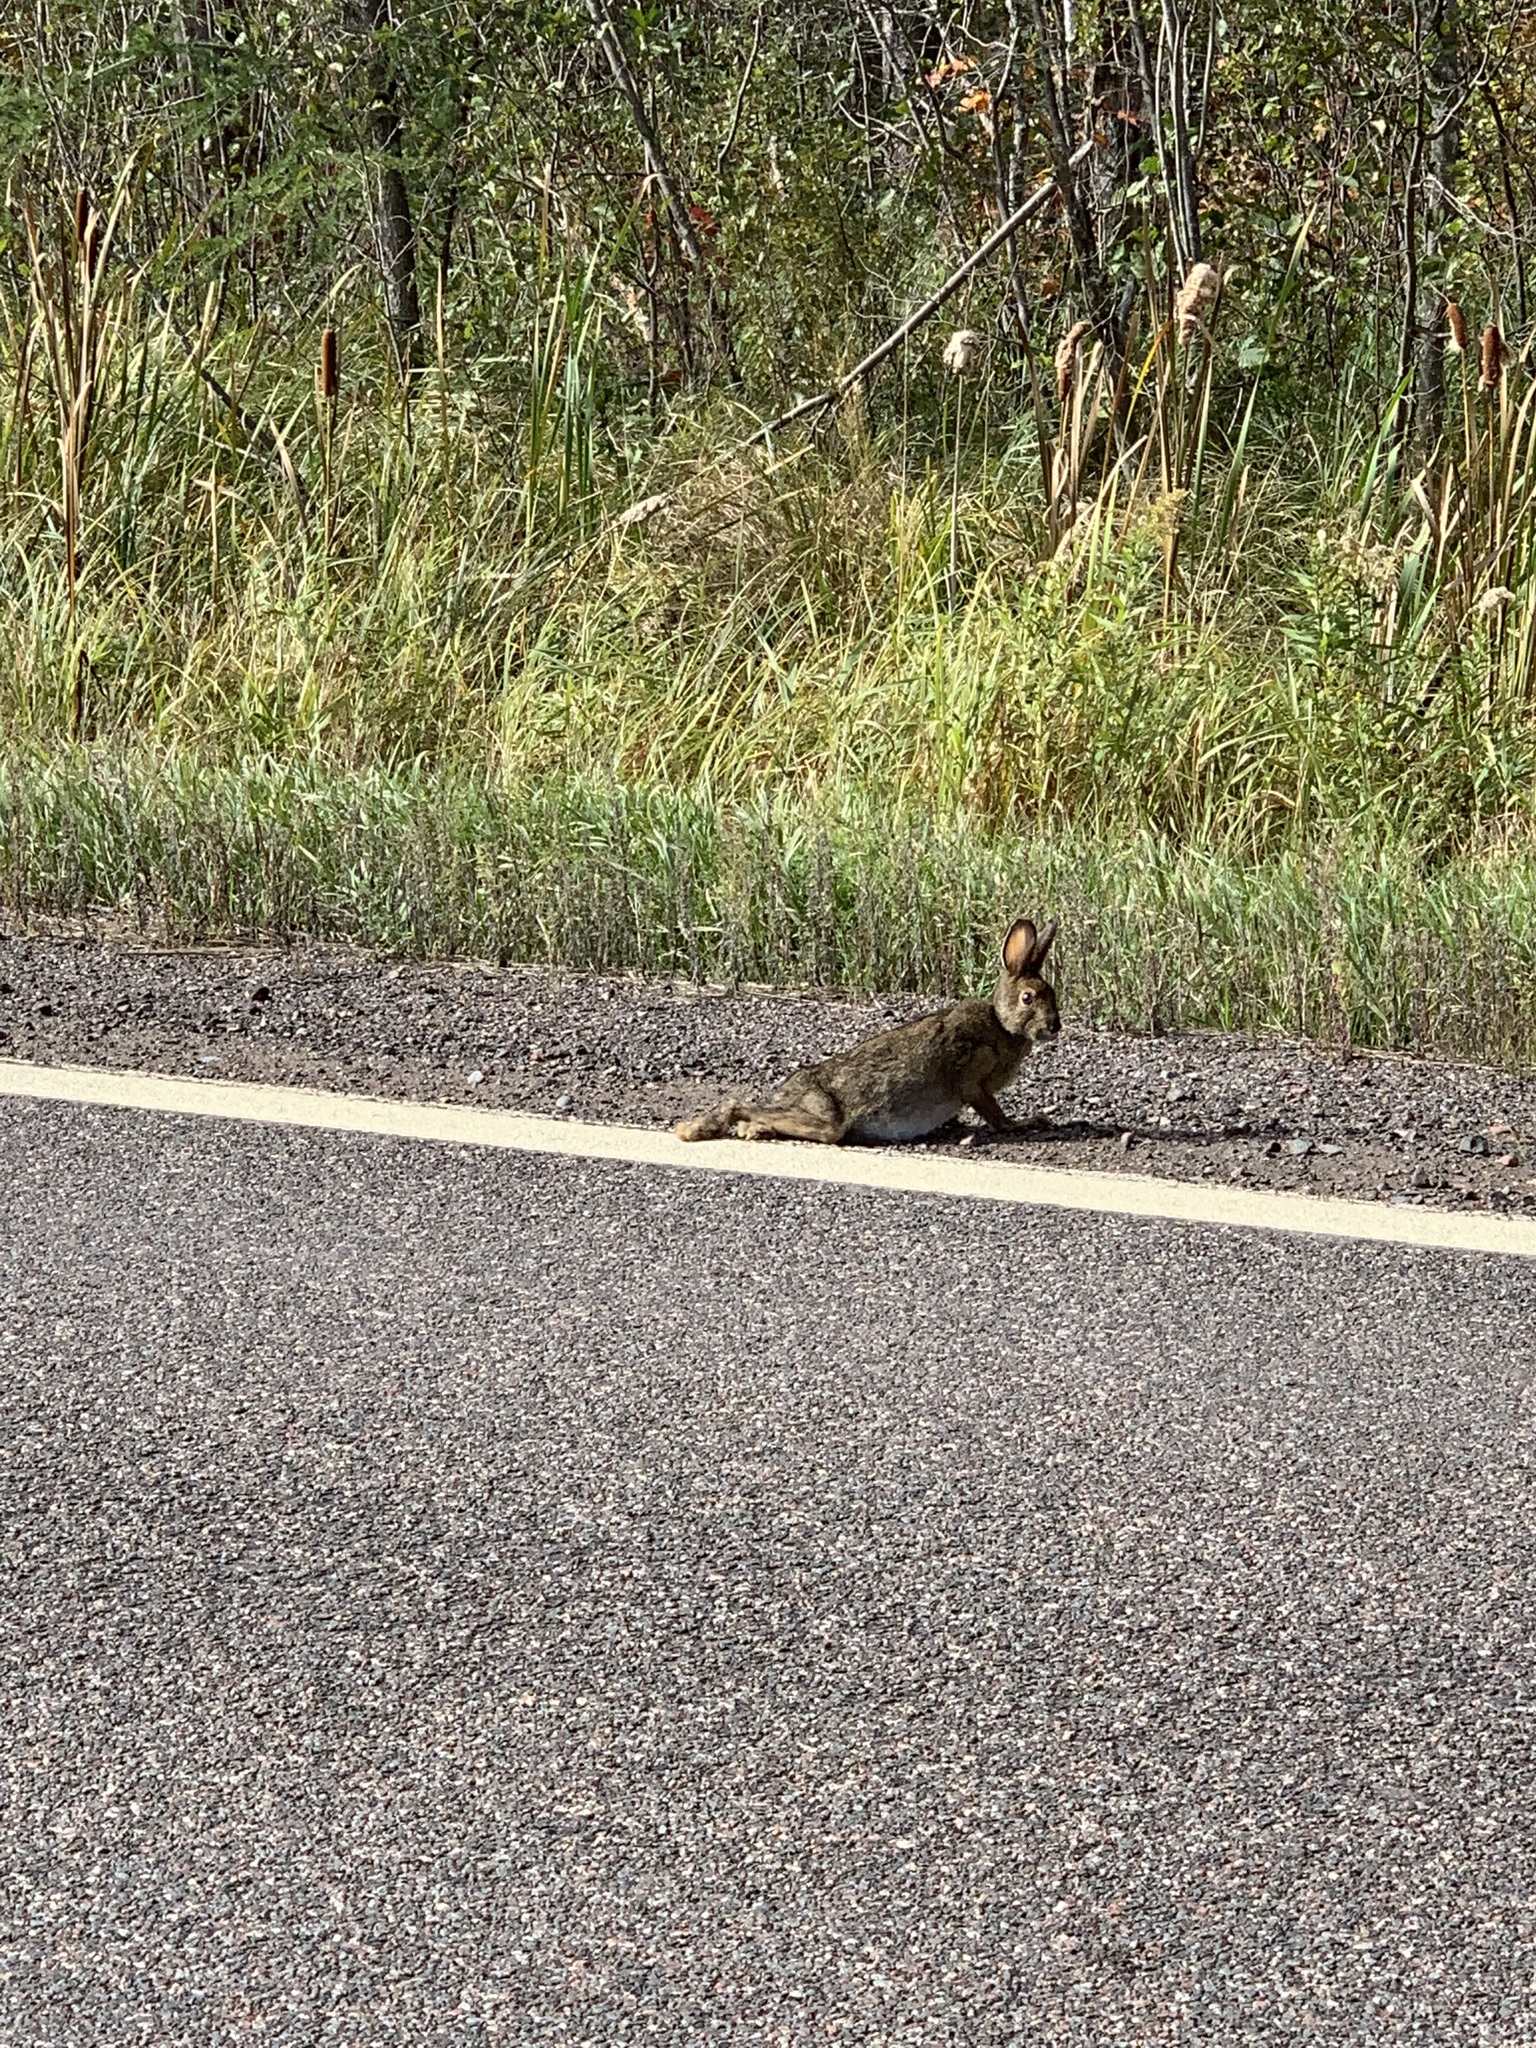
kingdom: Animalia
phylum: Chordata
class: Mammalia
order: Lagomorpha
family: Leporidae
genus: Lepus
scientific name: Lepus americanus
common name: Snowshoe hare
